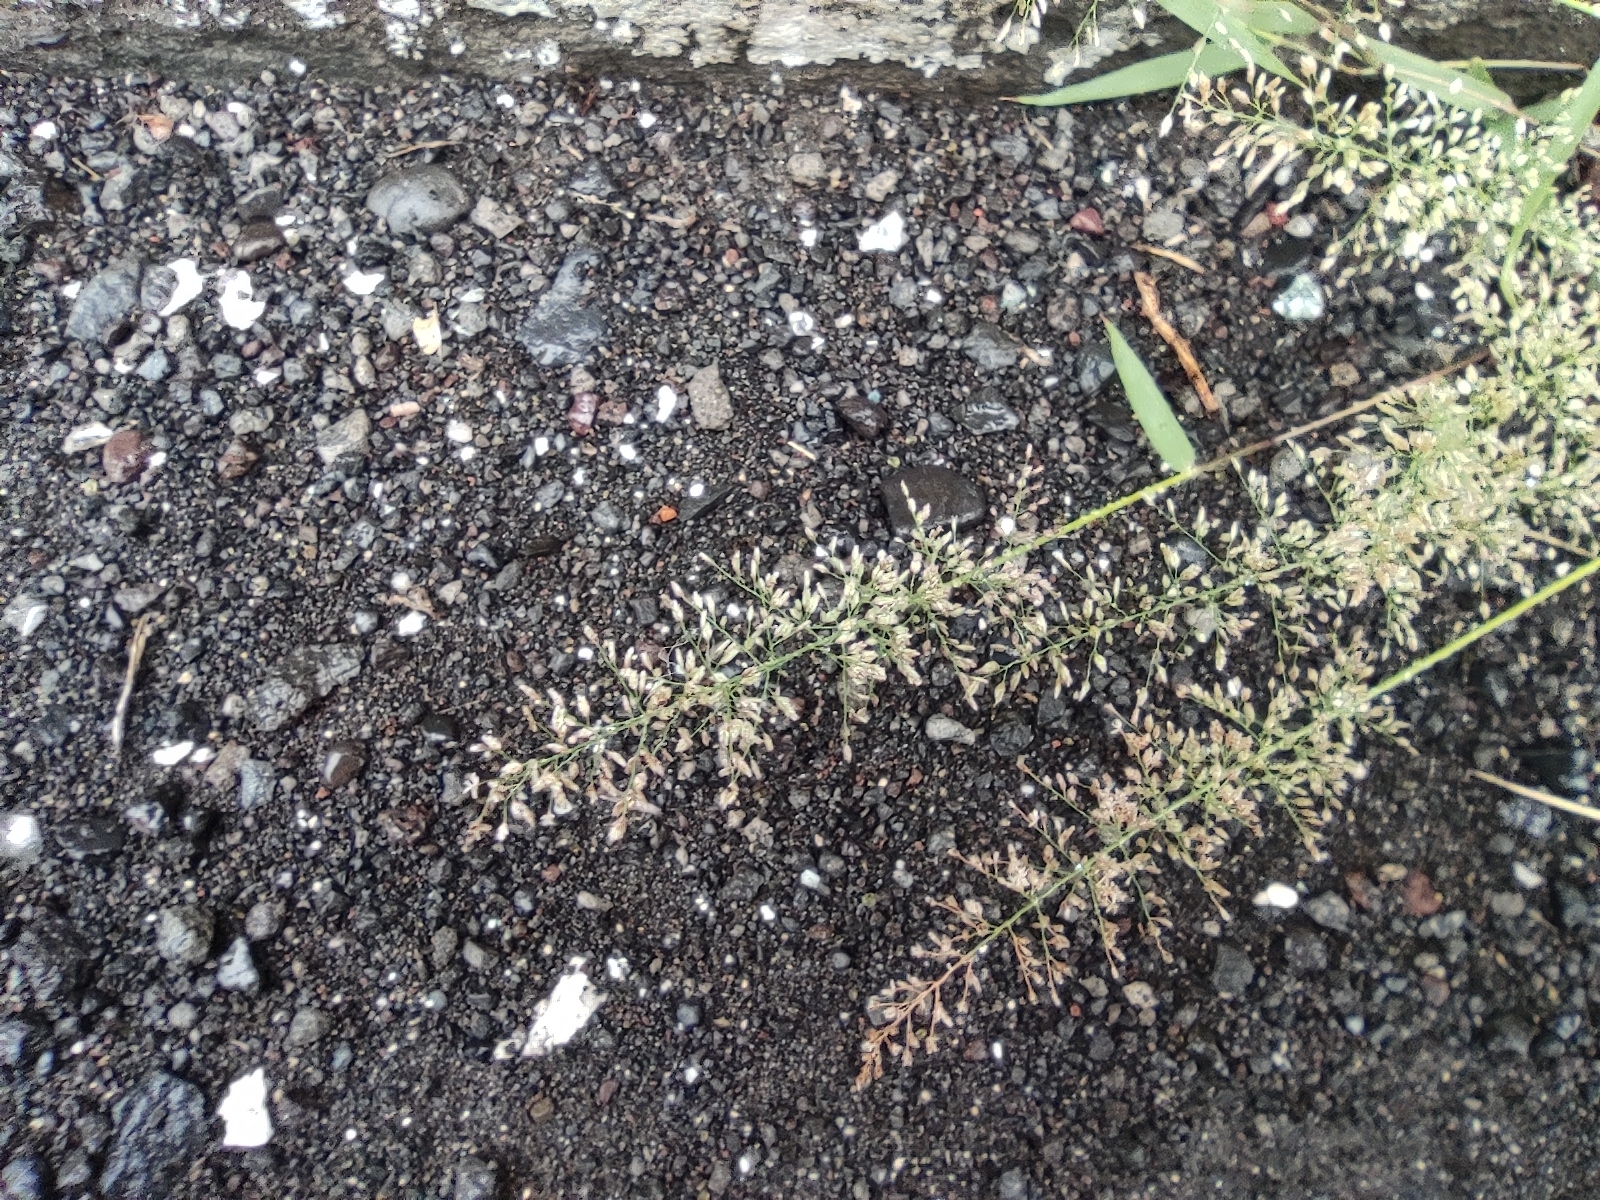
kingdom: Plantae
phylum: Tracheophyta
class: Liliopsida
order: Poales
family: Poaceae
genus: Eragrostis
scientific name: Eragrostis tenella
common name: Japanese lovegrass
